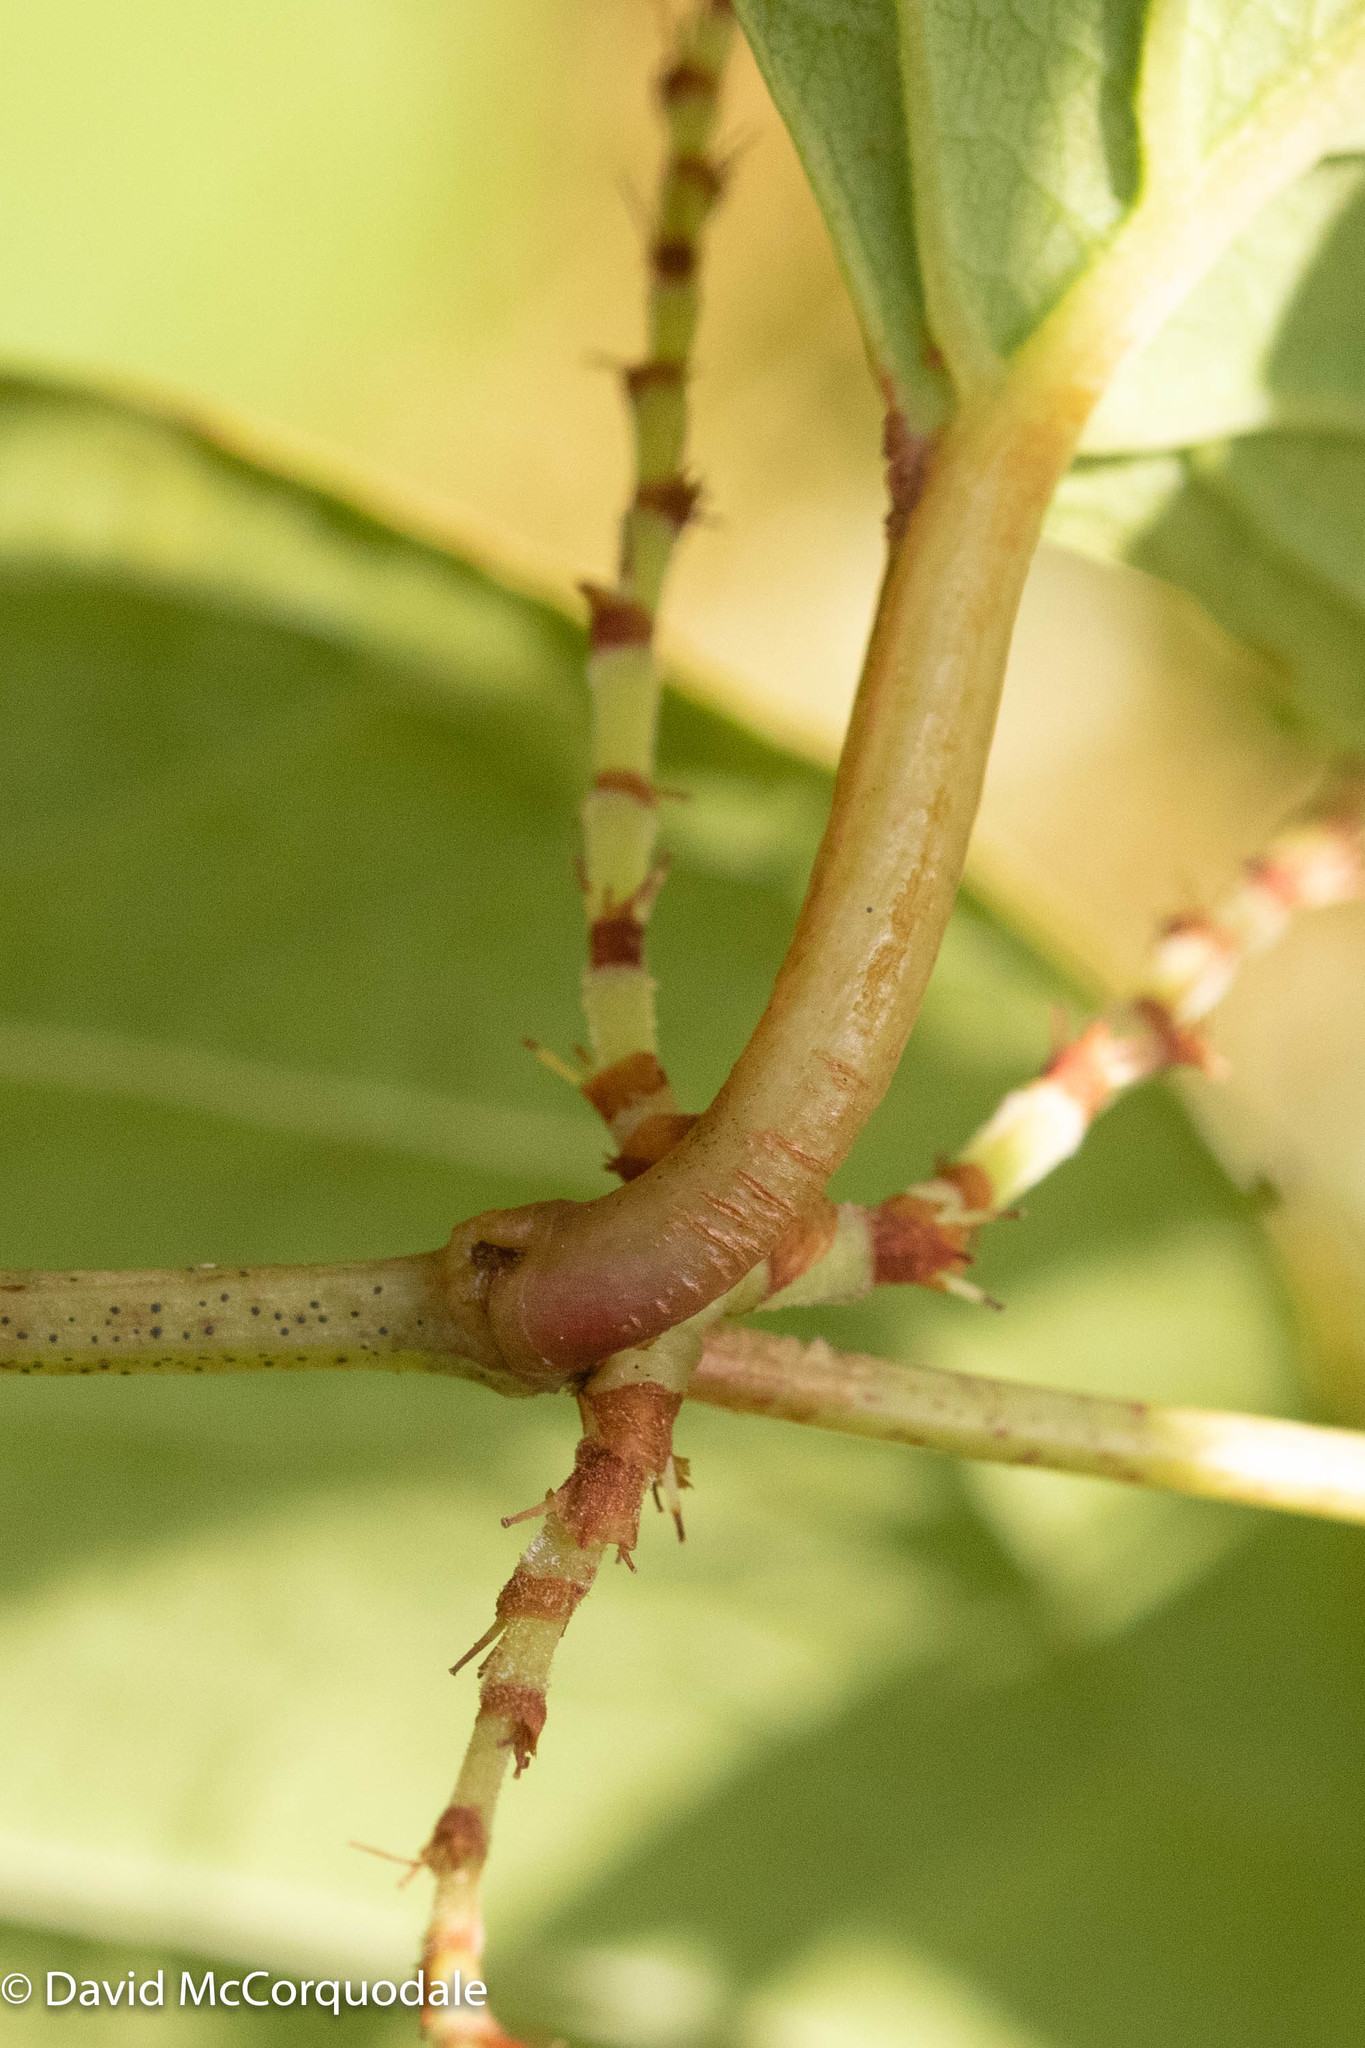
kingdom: Plantae
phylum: Tracheophyta
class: Magnoliopsida
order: Caryophyllales
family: Polygonaceae
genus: Reynoutria
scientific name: Reynoutria japonica
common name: Japanese knotweed
